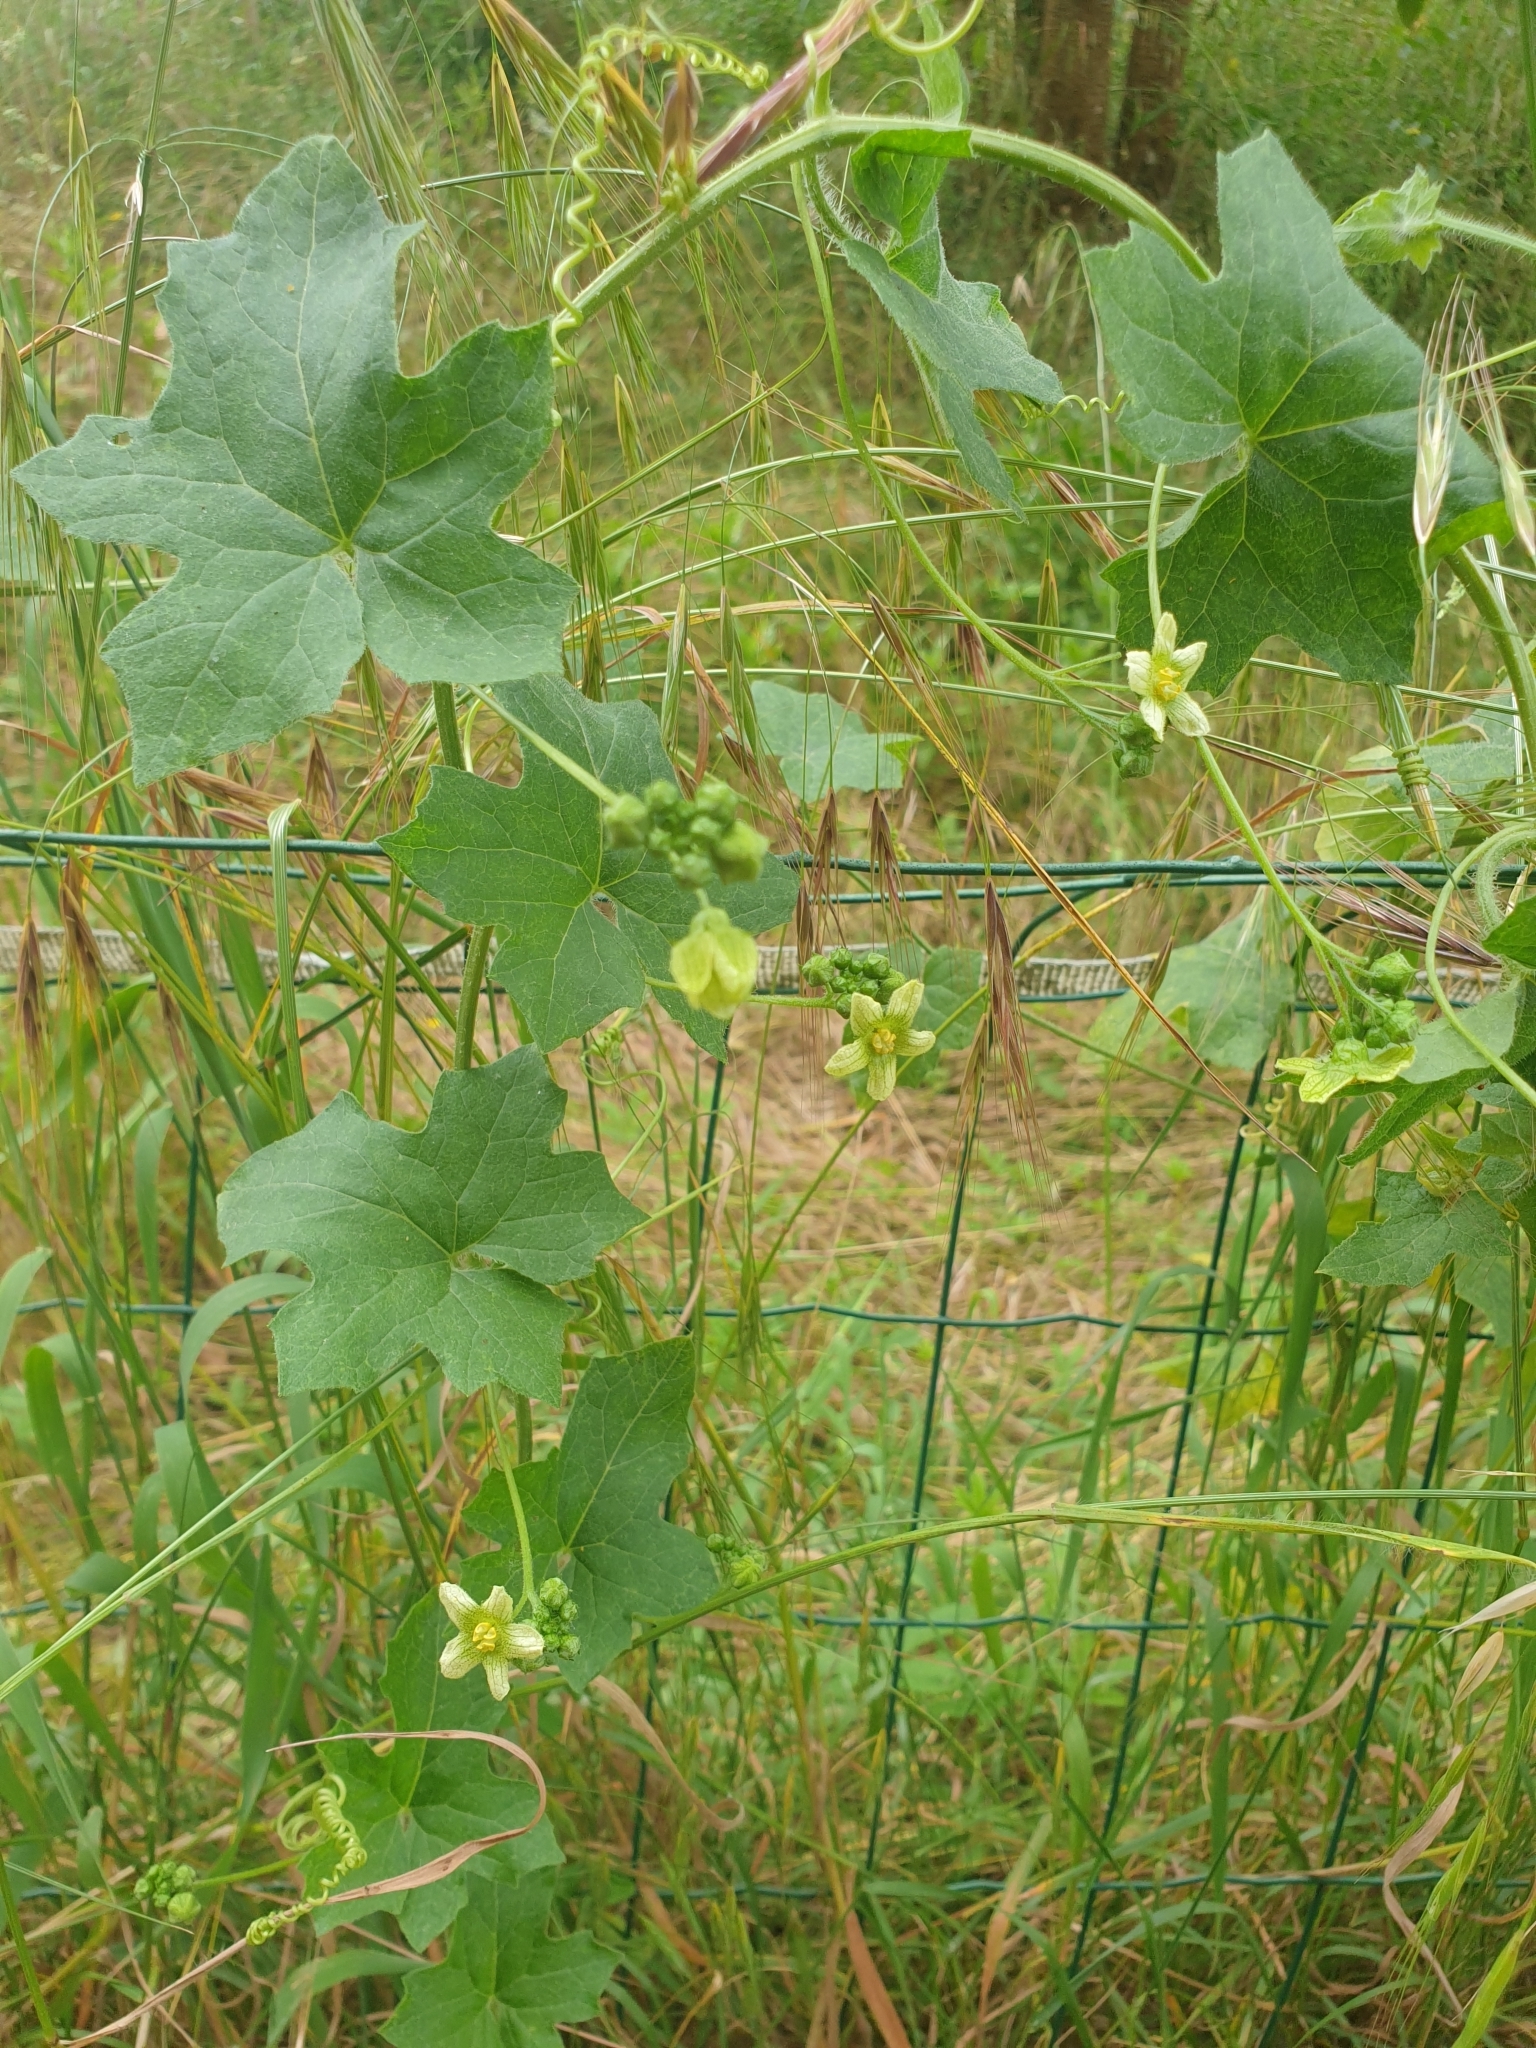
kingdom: Plantae
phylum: Tracheophyta
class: Magnoliopsida
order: Cucurbitales
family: Cucurbitaceae
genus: Bryonia
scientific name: Bryonia cretica
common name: Cretan bryony
